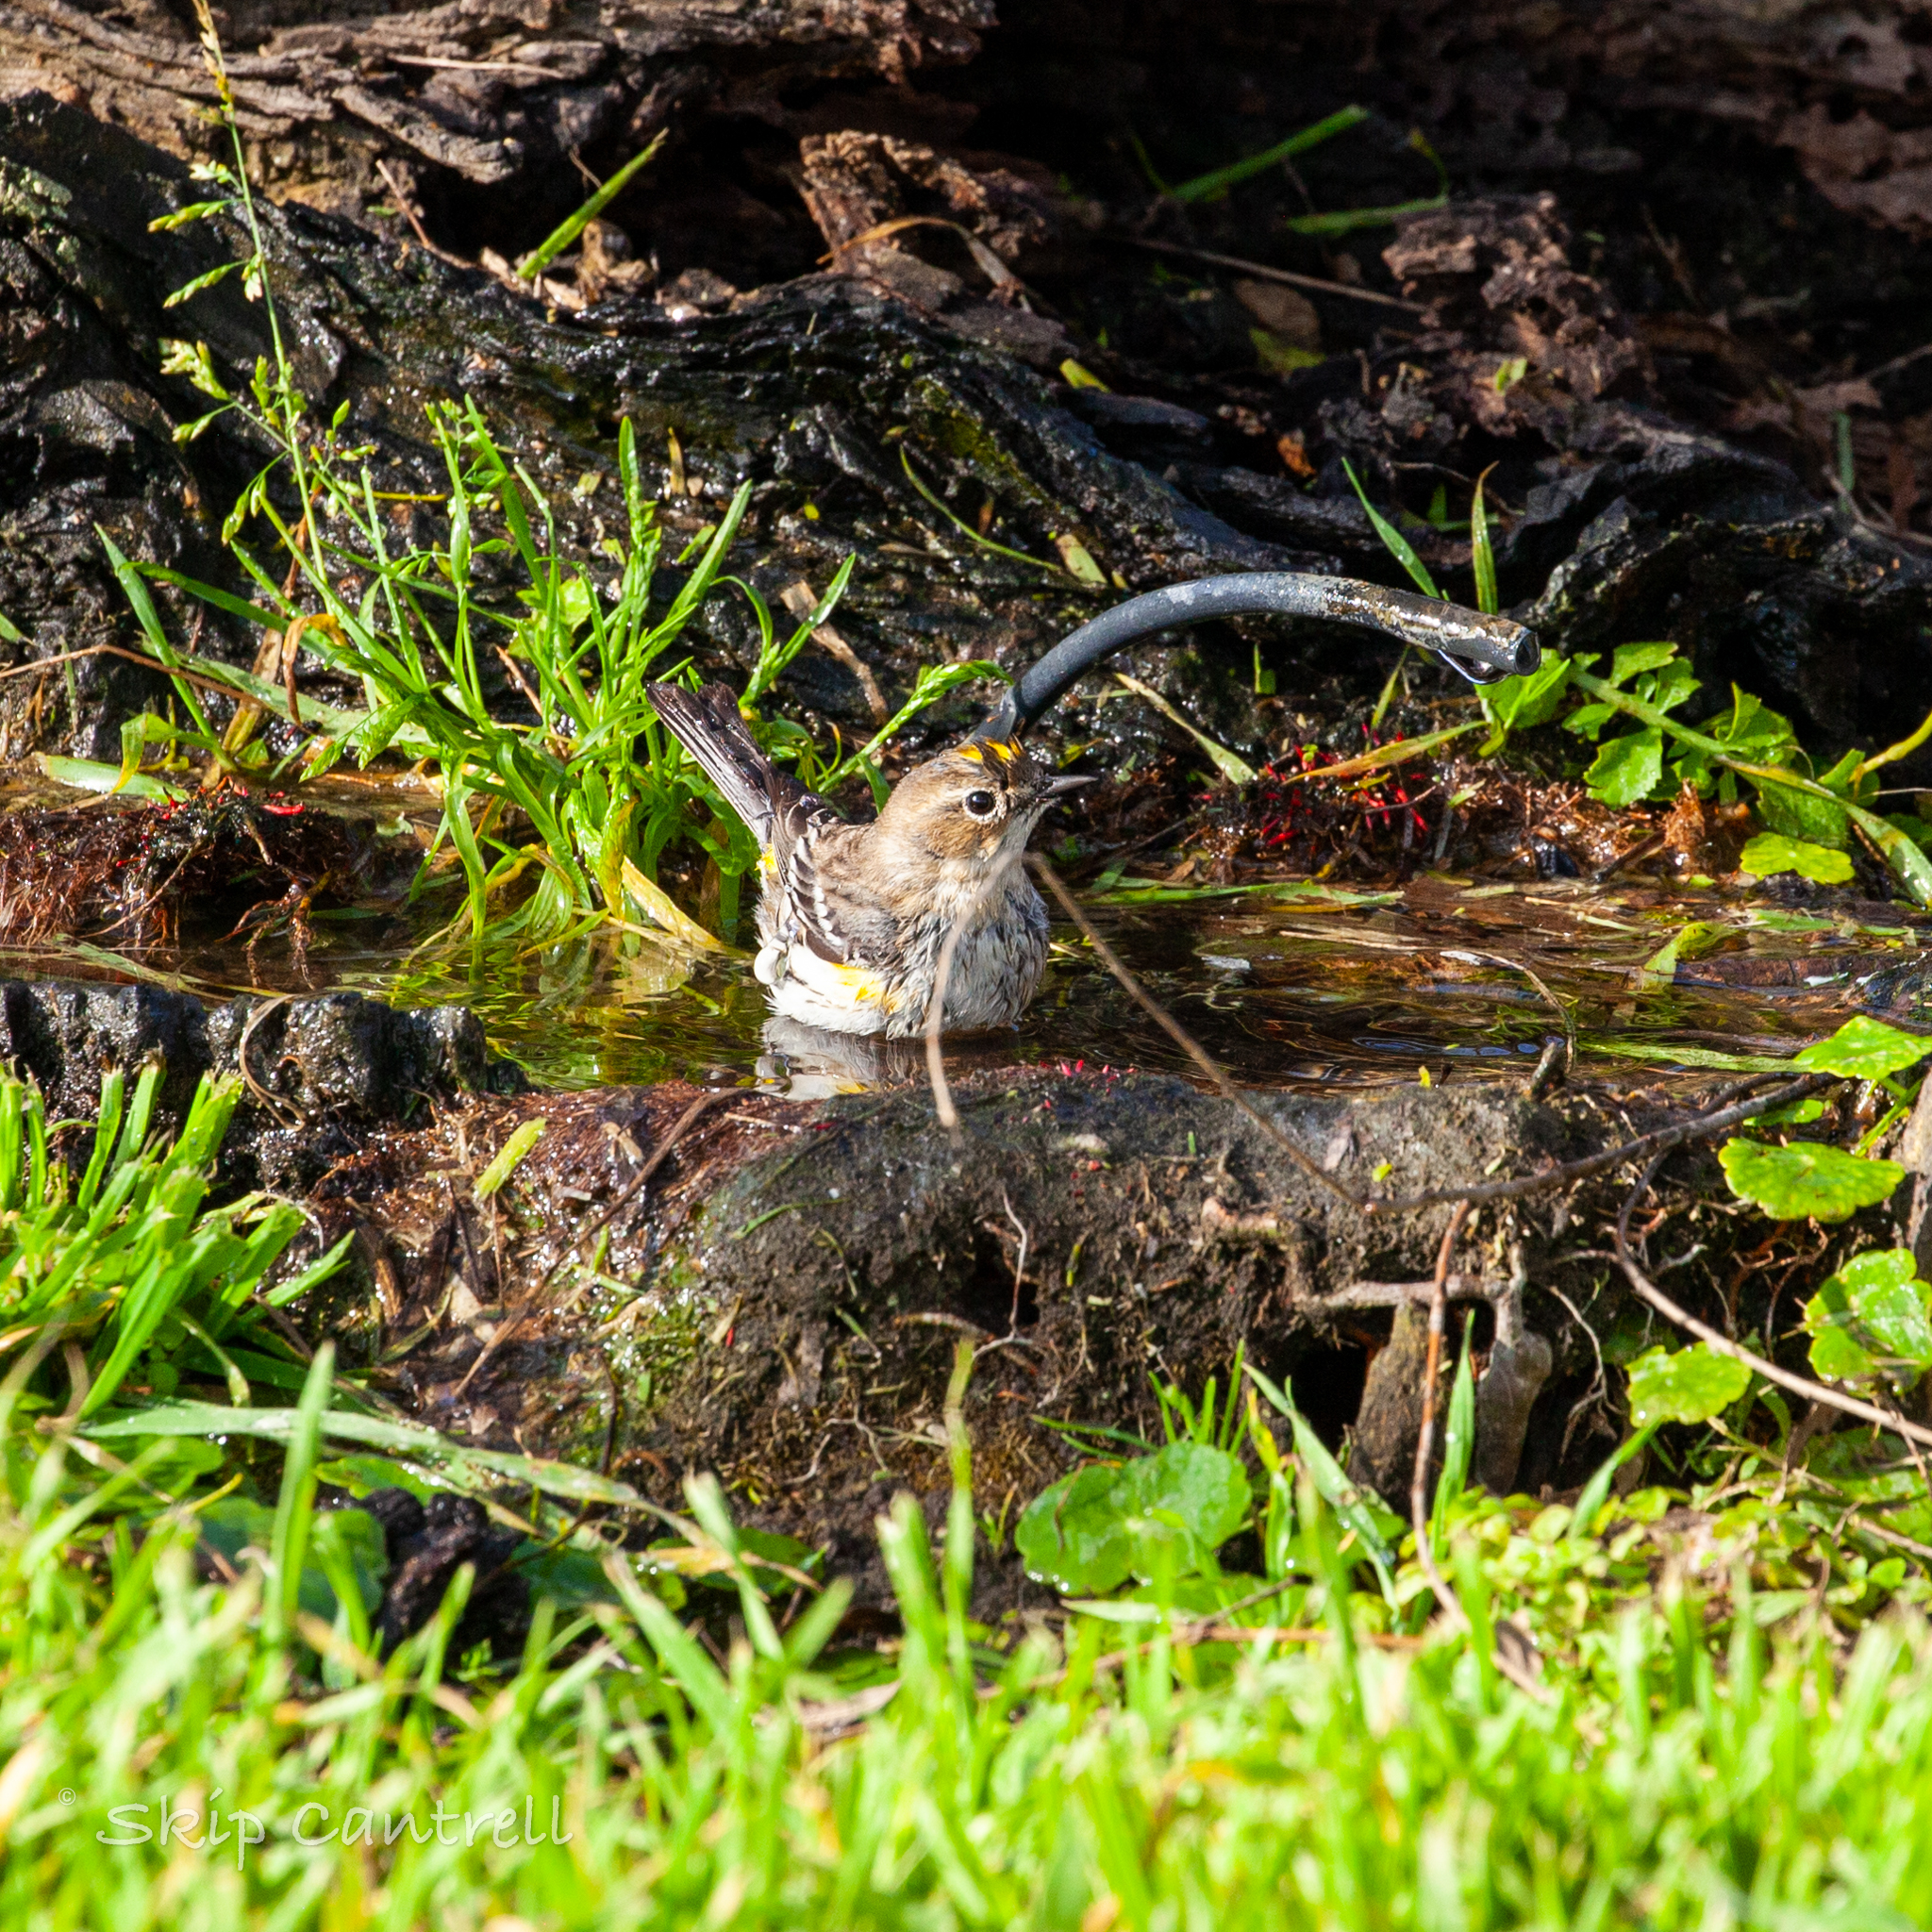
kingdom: Animalia
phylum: Chordata
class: Aves
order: Passeriformes
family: Parulidae
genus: Setophaga
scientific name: Setophaga coronata
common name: Myrtle warbler
